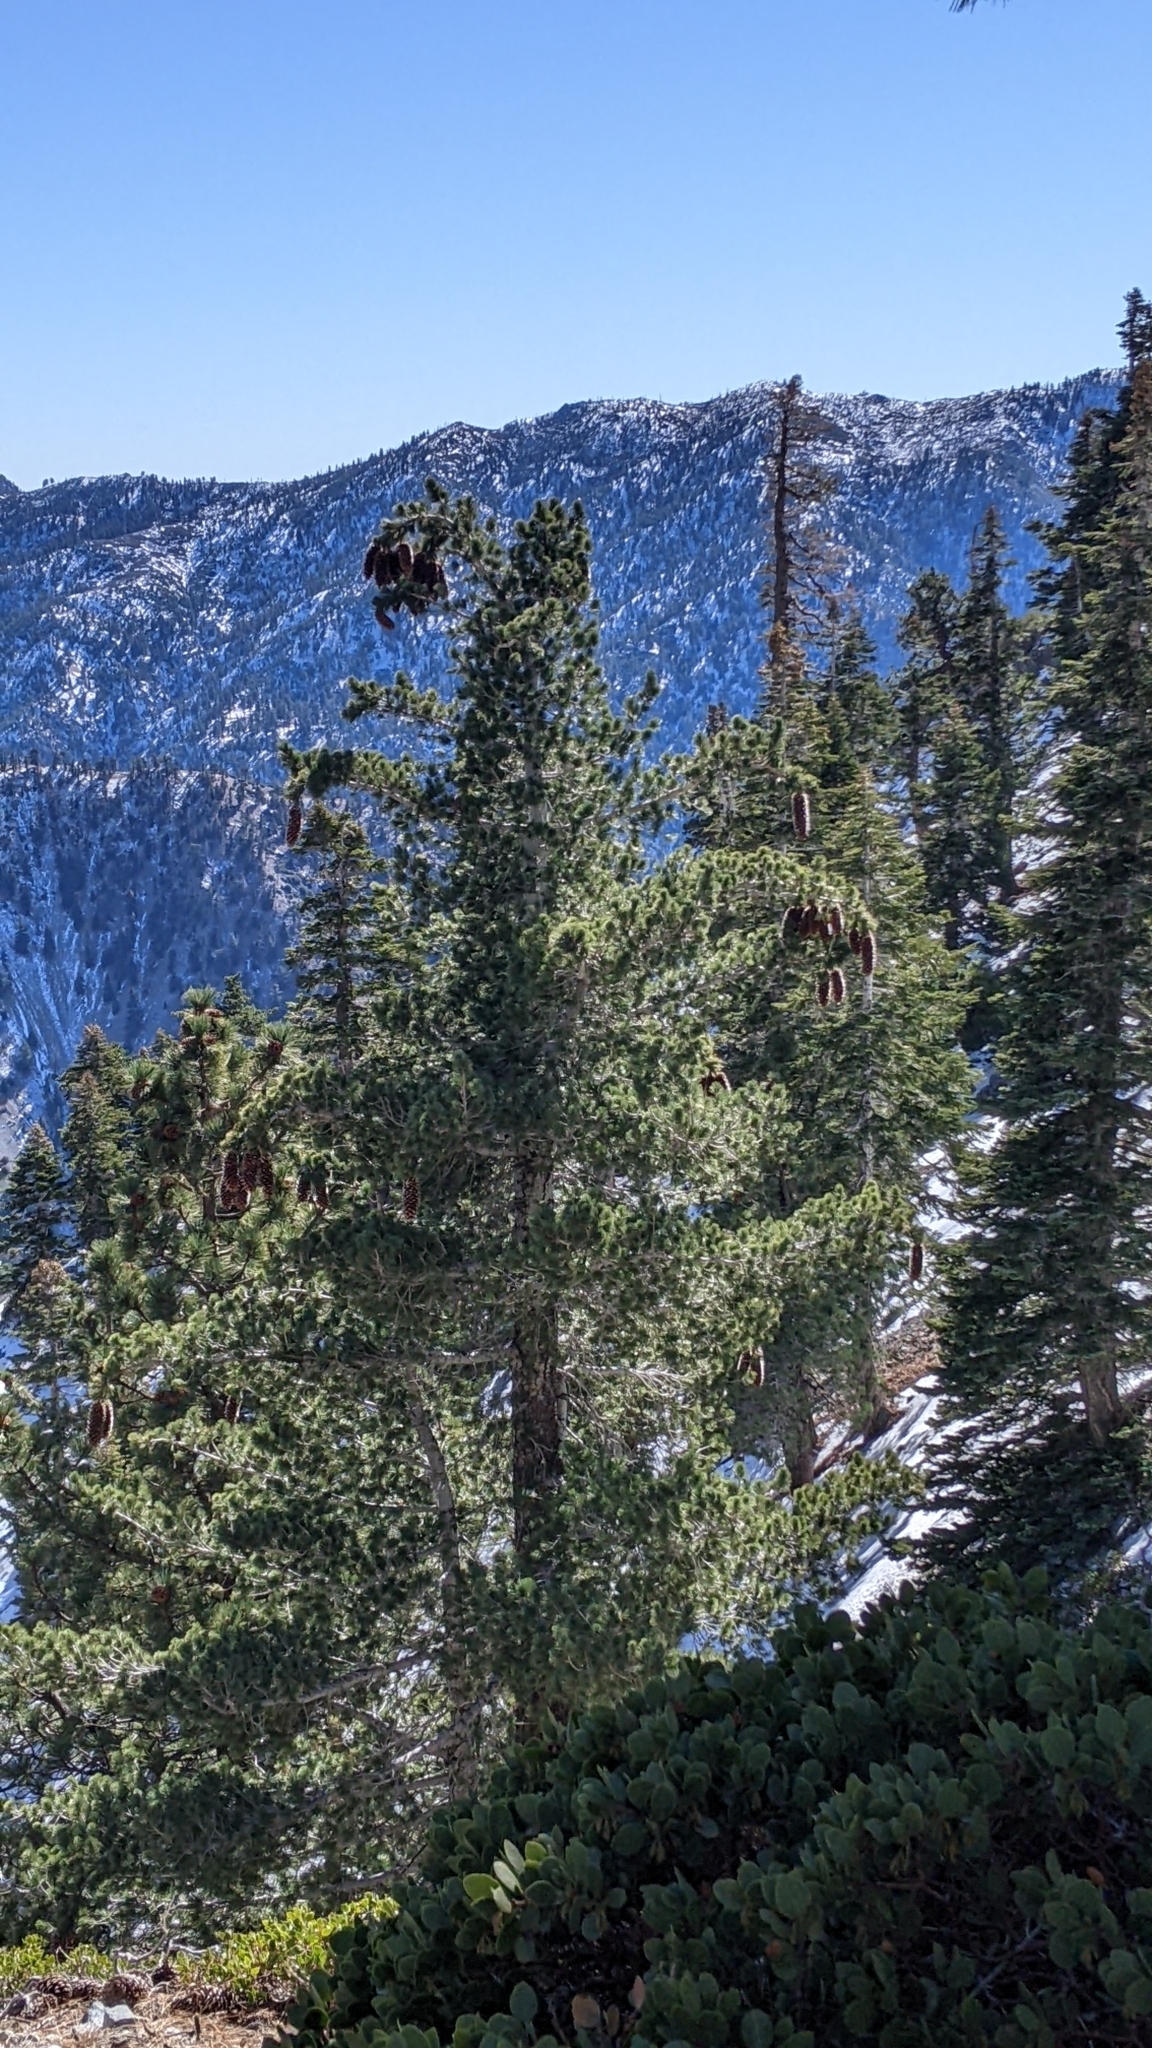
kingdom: Plantae
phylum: Tracheophyta
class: Pinopsida
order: Pinales
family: Pinaceae
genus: Pinus
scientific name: Pinus lambertiana
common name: Sugar pine
